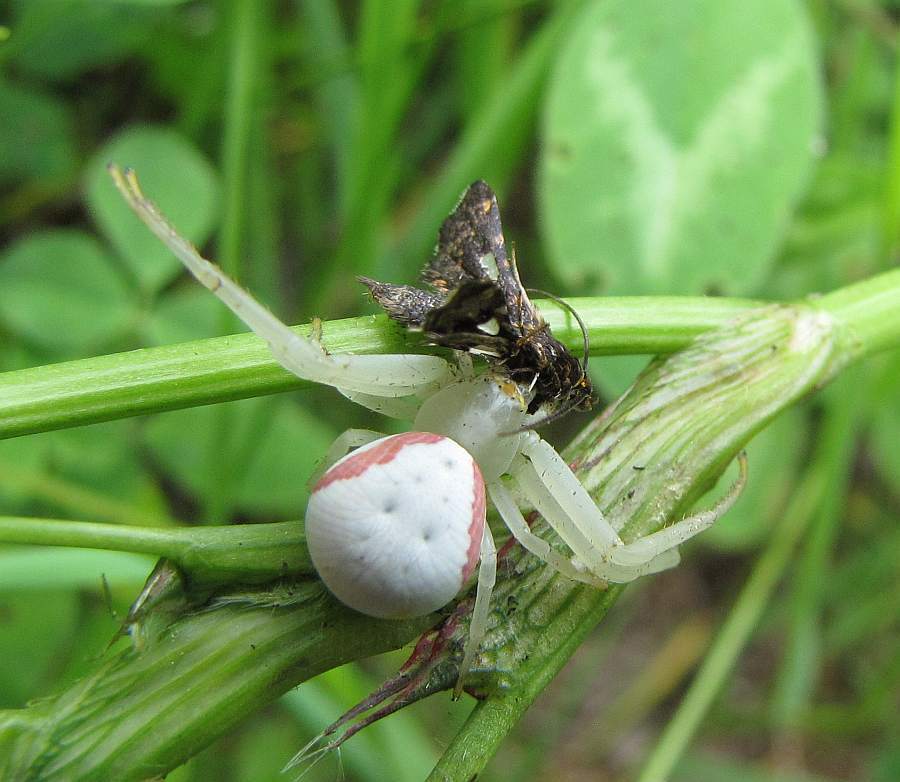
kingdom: Animalia
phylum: Arthropoda
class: Arachnida
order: Araneae
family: Thomisidae
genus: Misumena
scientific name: Misumena vatia
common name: Goldenrod crab spider
